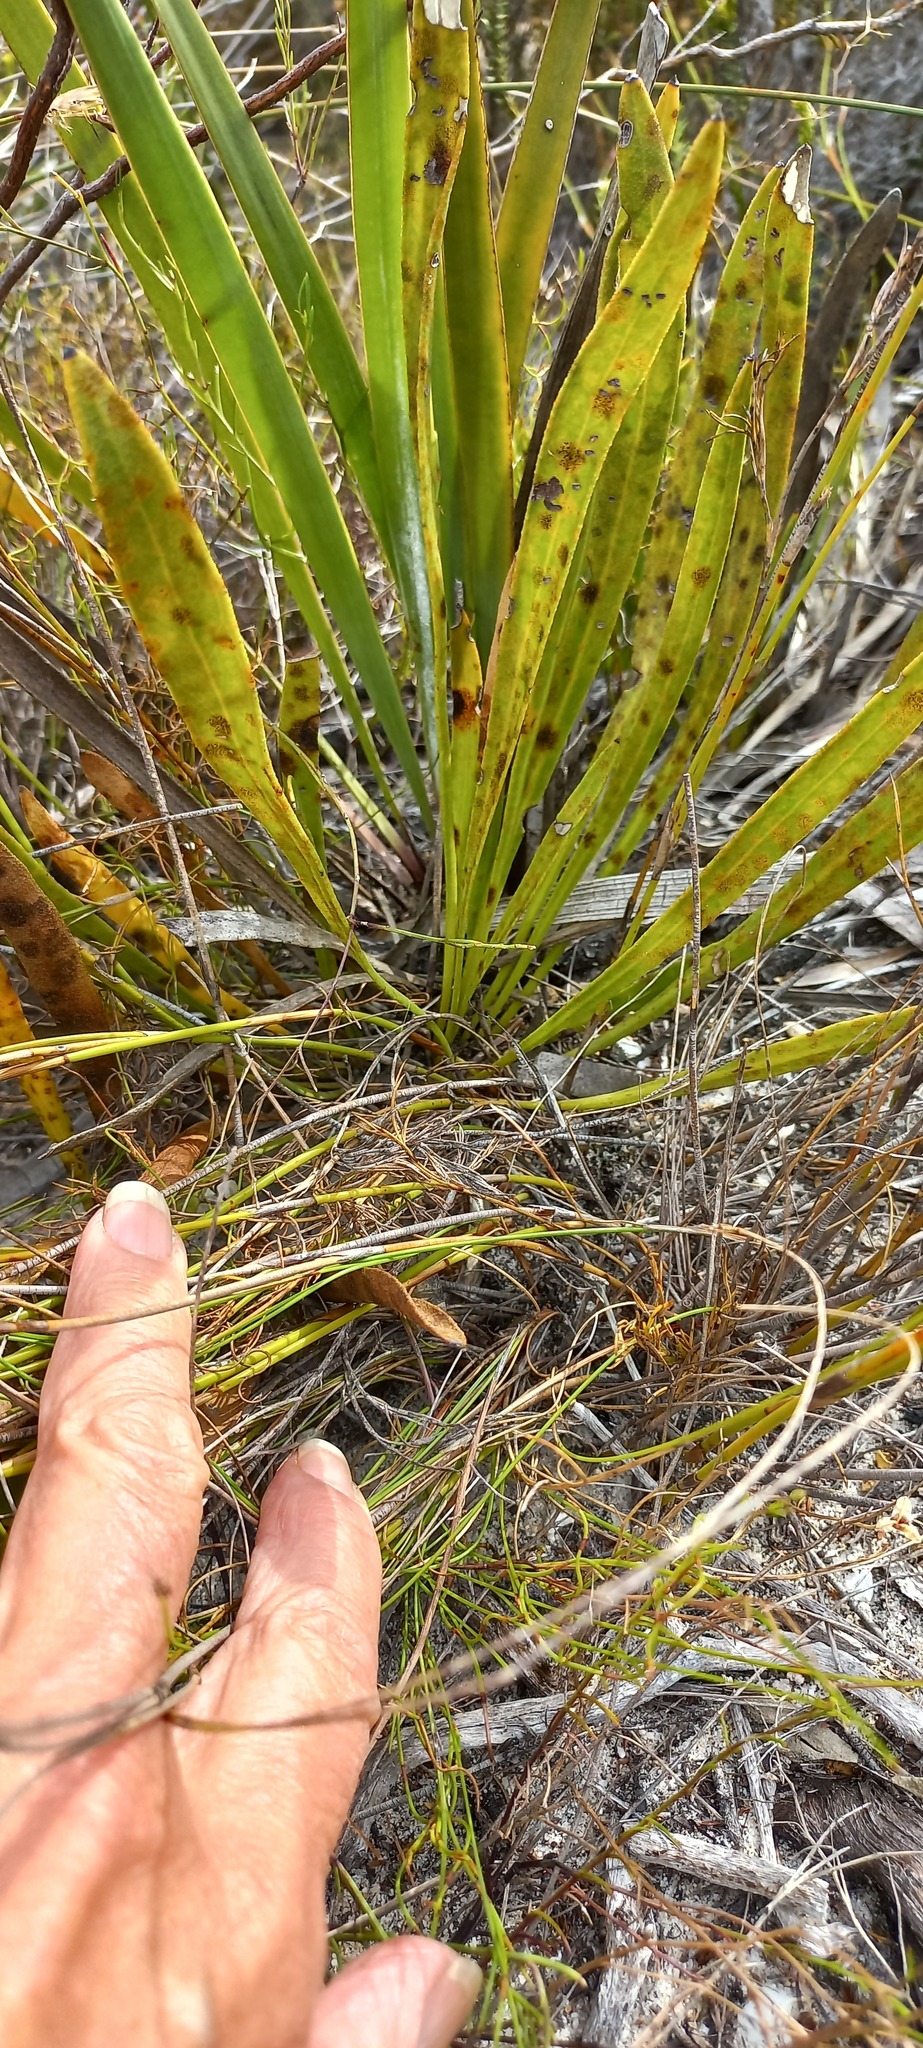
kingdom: Plantae
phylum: Tracheophyta
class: Magnoliopsida
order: Proteales
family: Proteaceae
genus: Protea
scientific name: Protea scabra
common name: Sandpaper-leaf sugarbush
